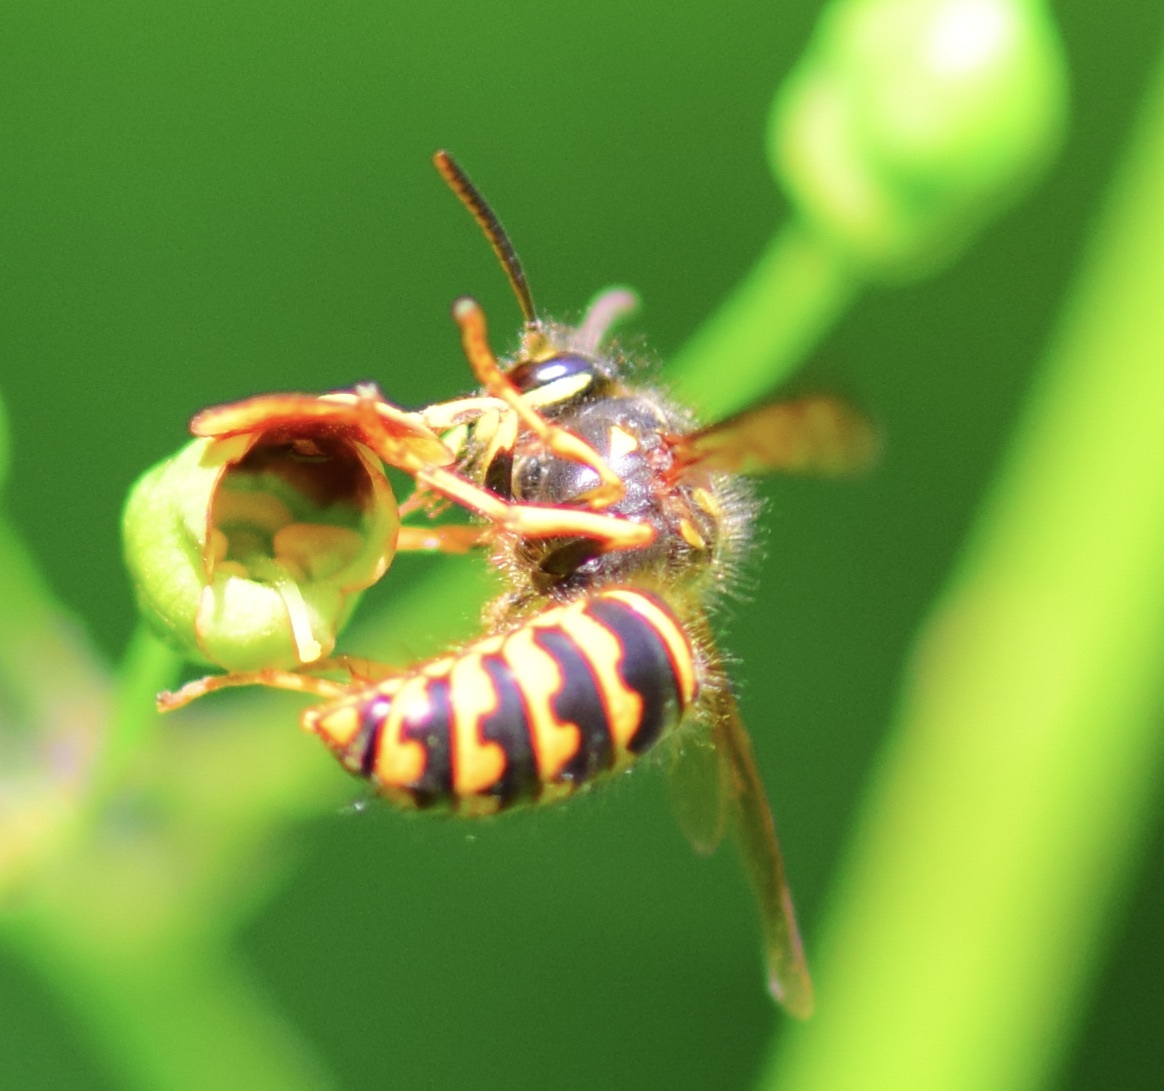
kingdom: Animalia
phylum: Arthropoda
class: Insecta
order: Hymenoptera
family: Vespidae
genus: Dolichovespula
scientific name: Dolichovespula arenaria
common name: Aerial yellowjacket
